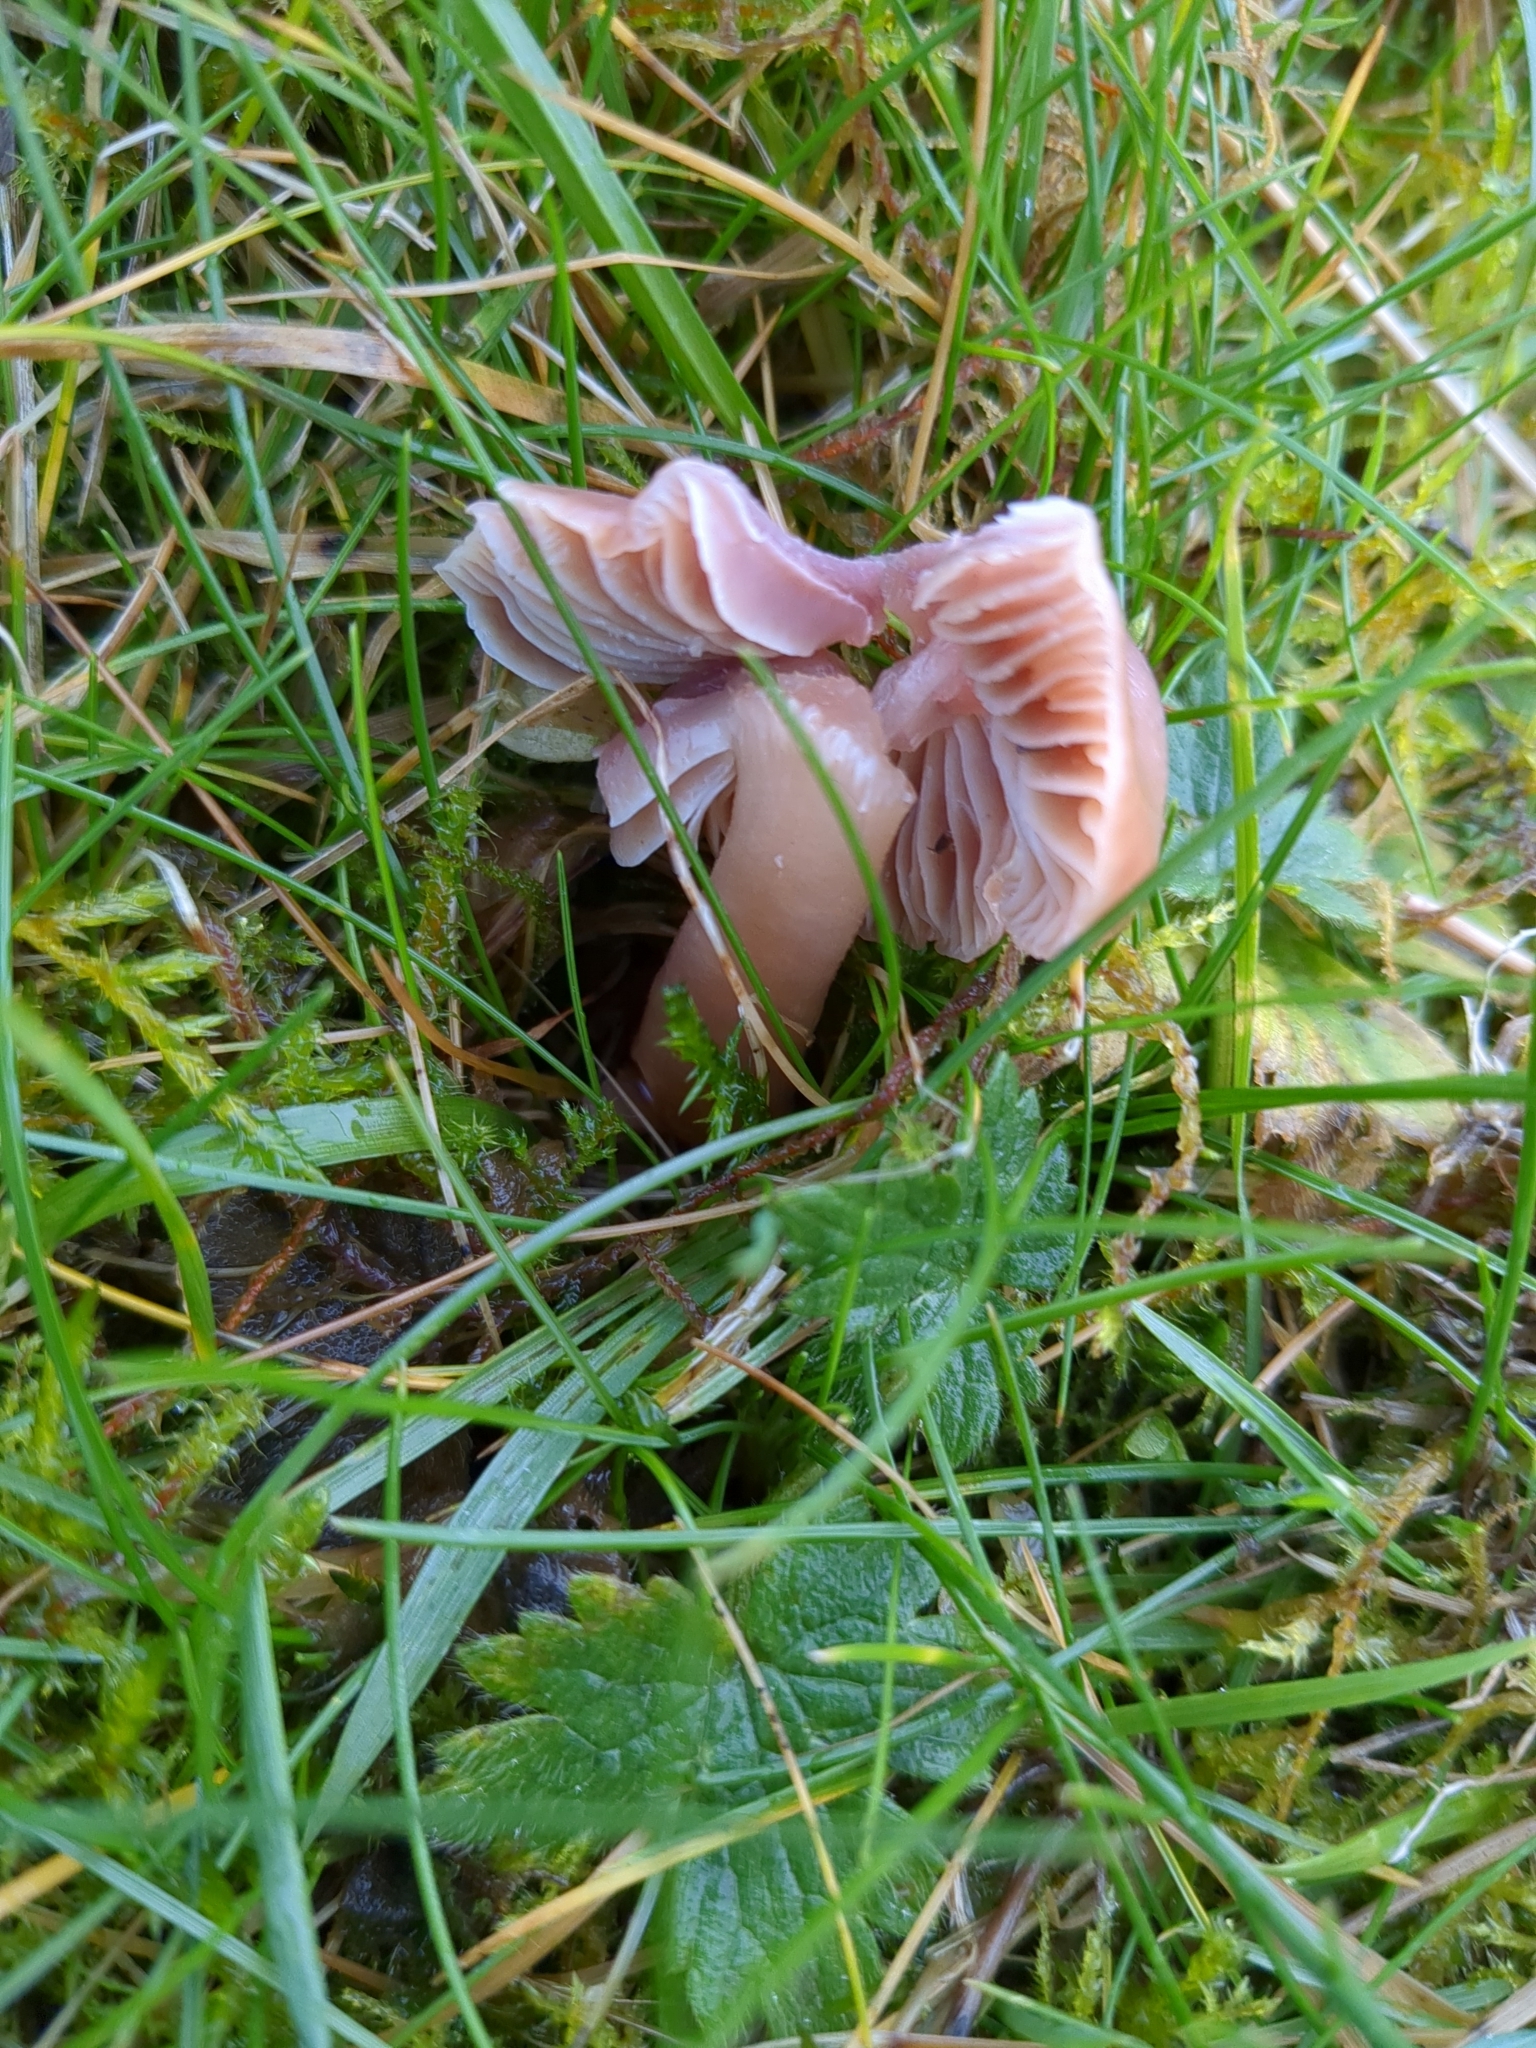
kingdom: Fungi
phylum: Basidiomycota
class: Agaricomycetes
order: Agaricales
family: Hygrophoraceae
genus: Gliophorus
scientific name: Gliophorus reginae
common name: Jubilee waxcap
